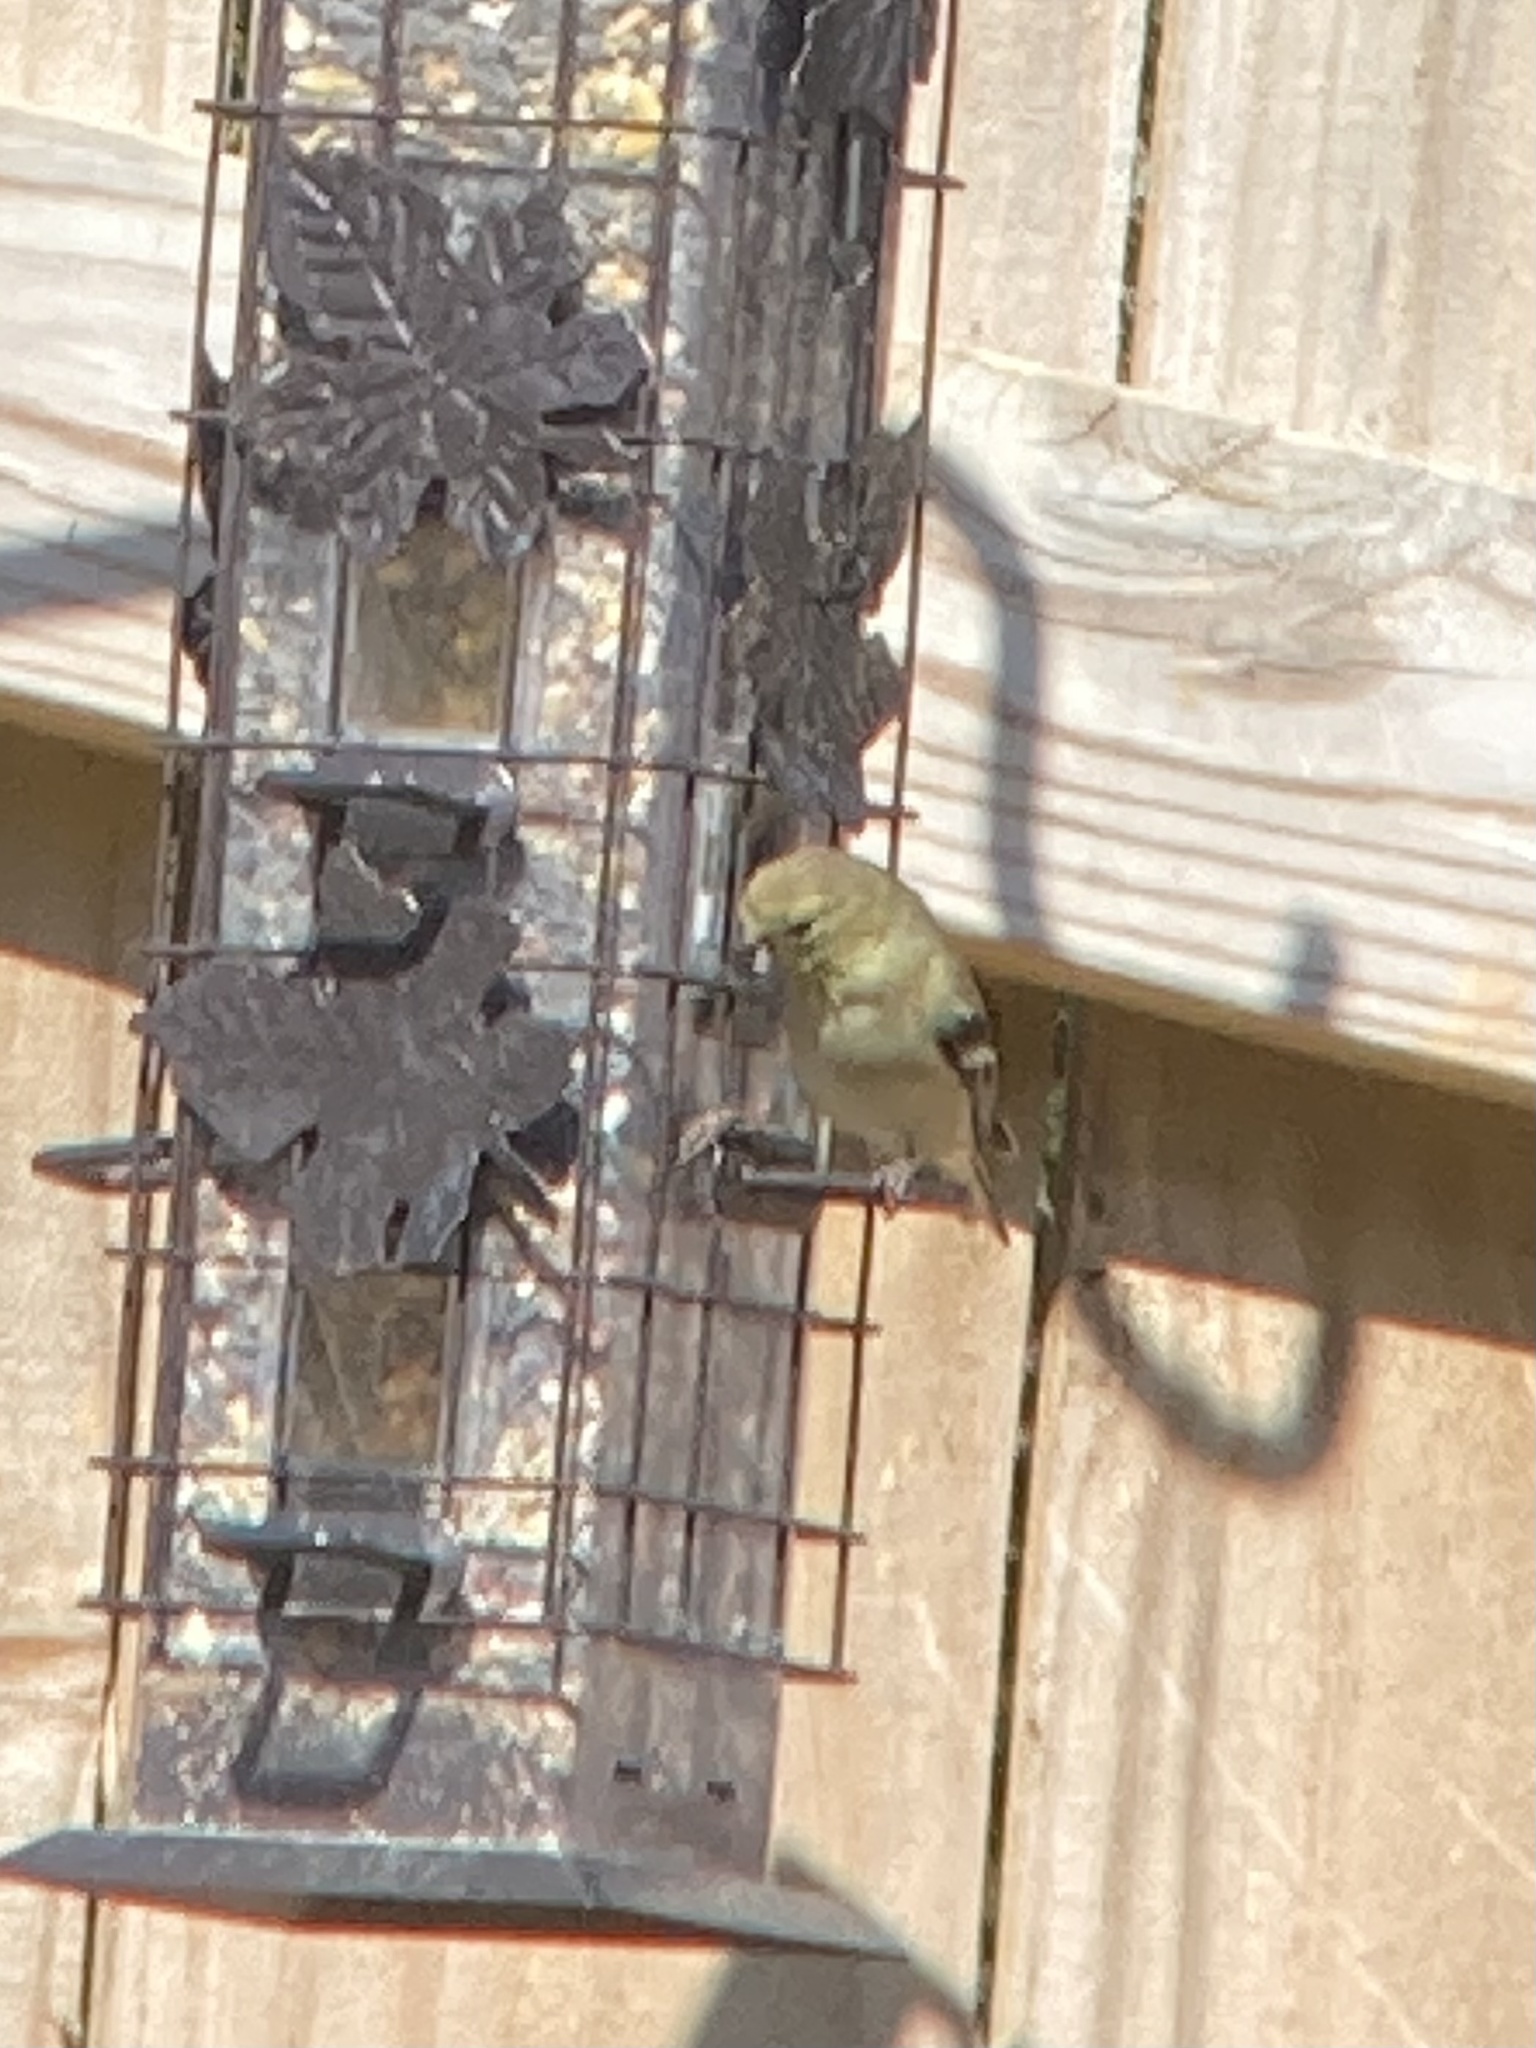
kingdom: Animalia
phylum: Chordata
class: Aves
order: Passeriformes
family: Fringillidae
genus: Spinus
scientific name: Spinus tristis
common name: American goldfinch
